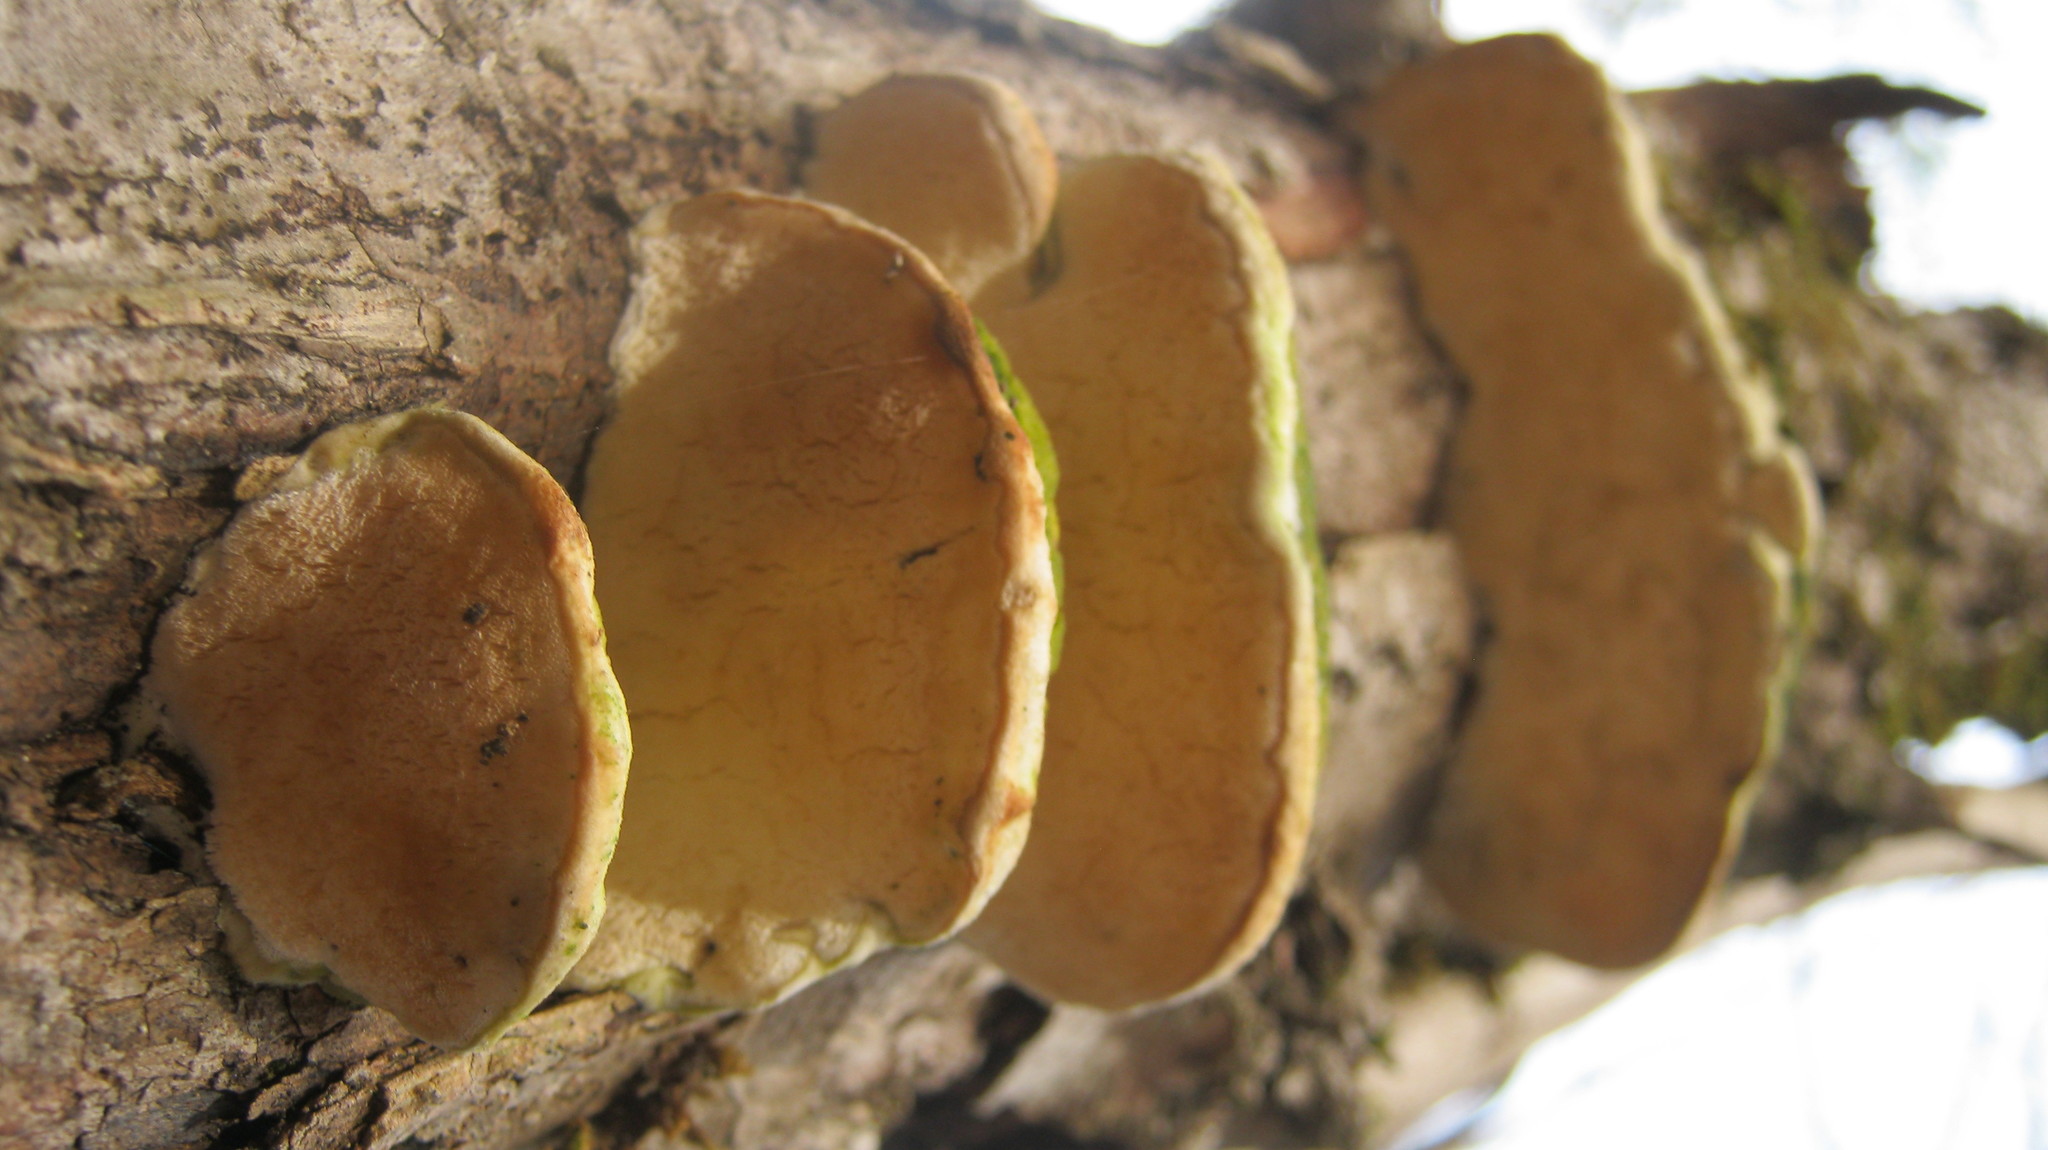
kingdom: Fungi
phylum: Basidiomycota
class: Agaricomycetes
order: Hymenochaetales
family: Oxyporaceae
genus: Oxyporus
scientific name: Oxyporus populinus
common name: Poplar bracket
